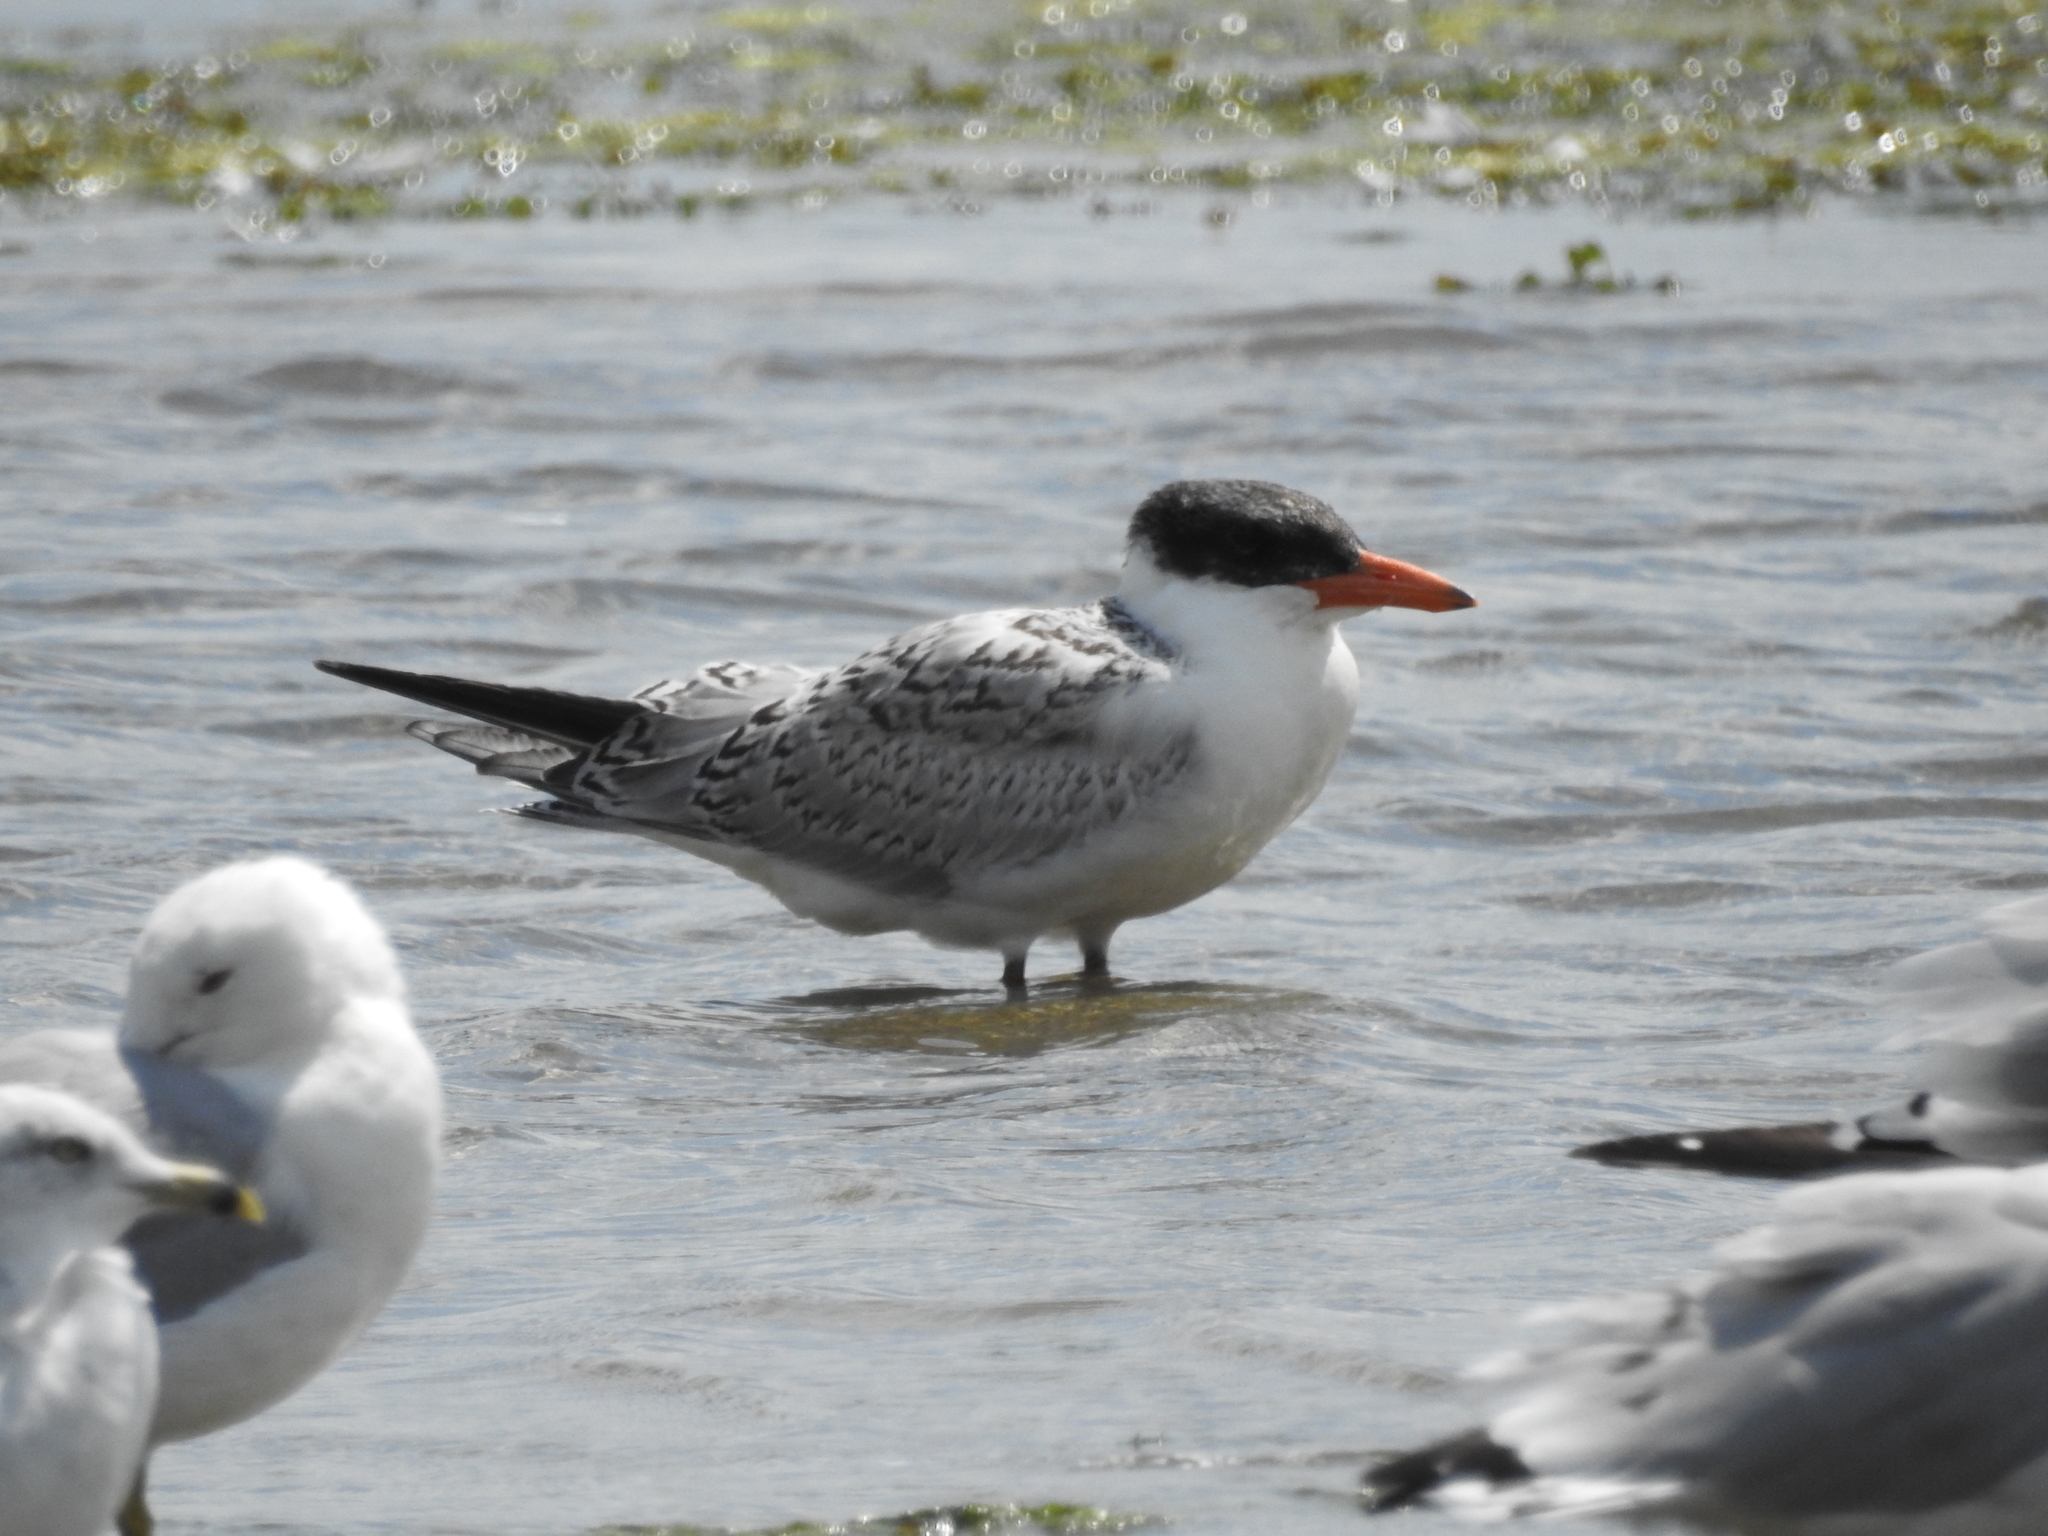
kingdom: Animalia
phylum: Chordata
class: Aves
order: Charadriiformes
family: Laridae
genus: Hydroprogne
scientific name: Hydroprogne caspia
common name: Caspian tern
